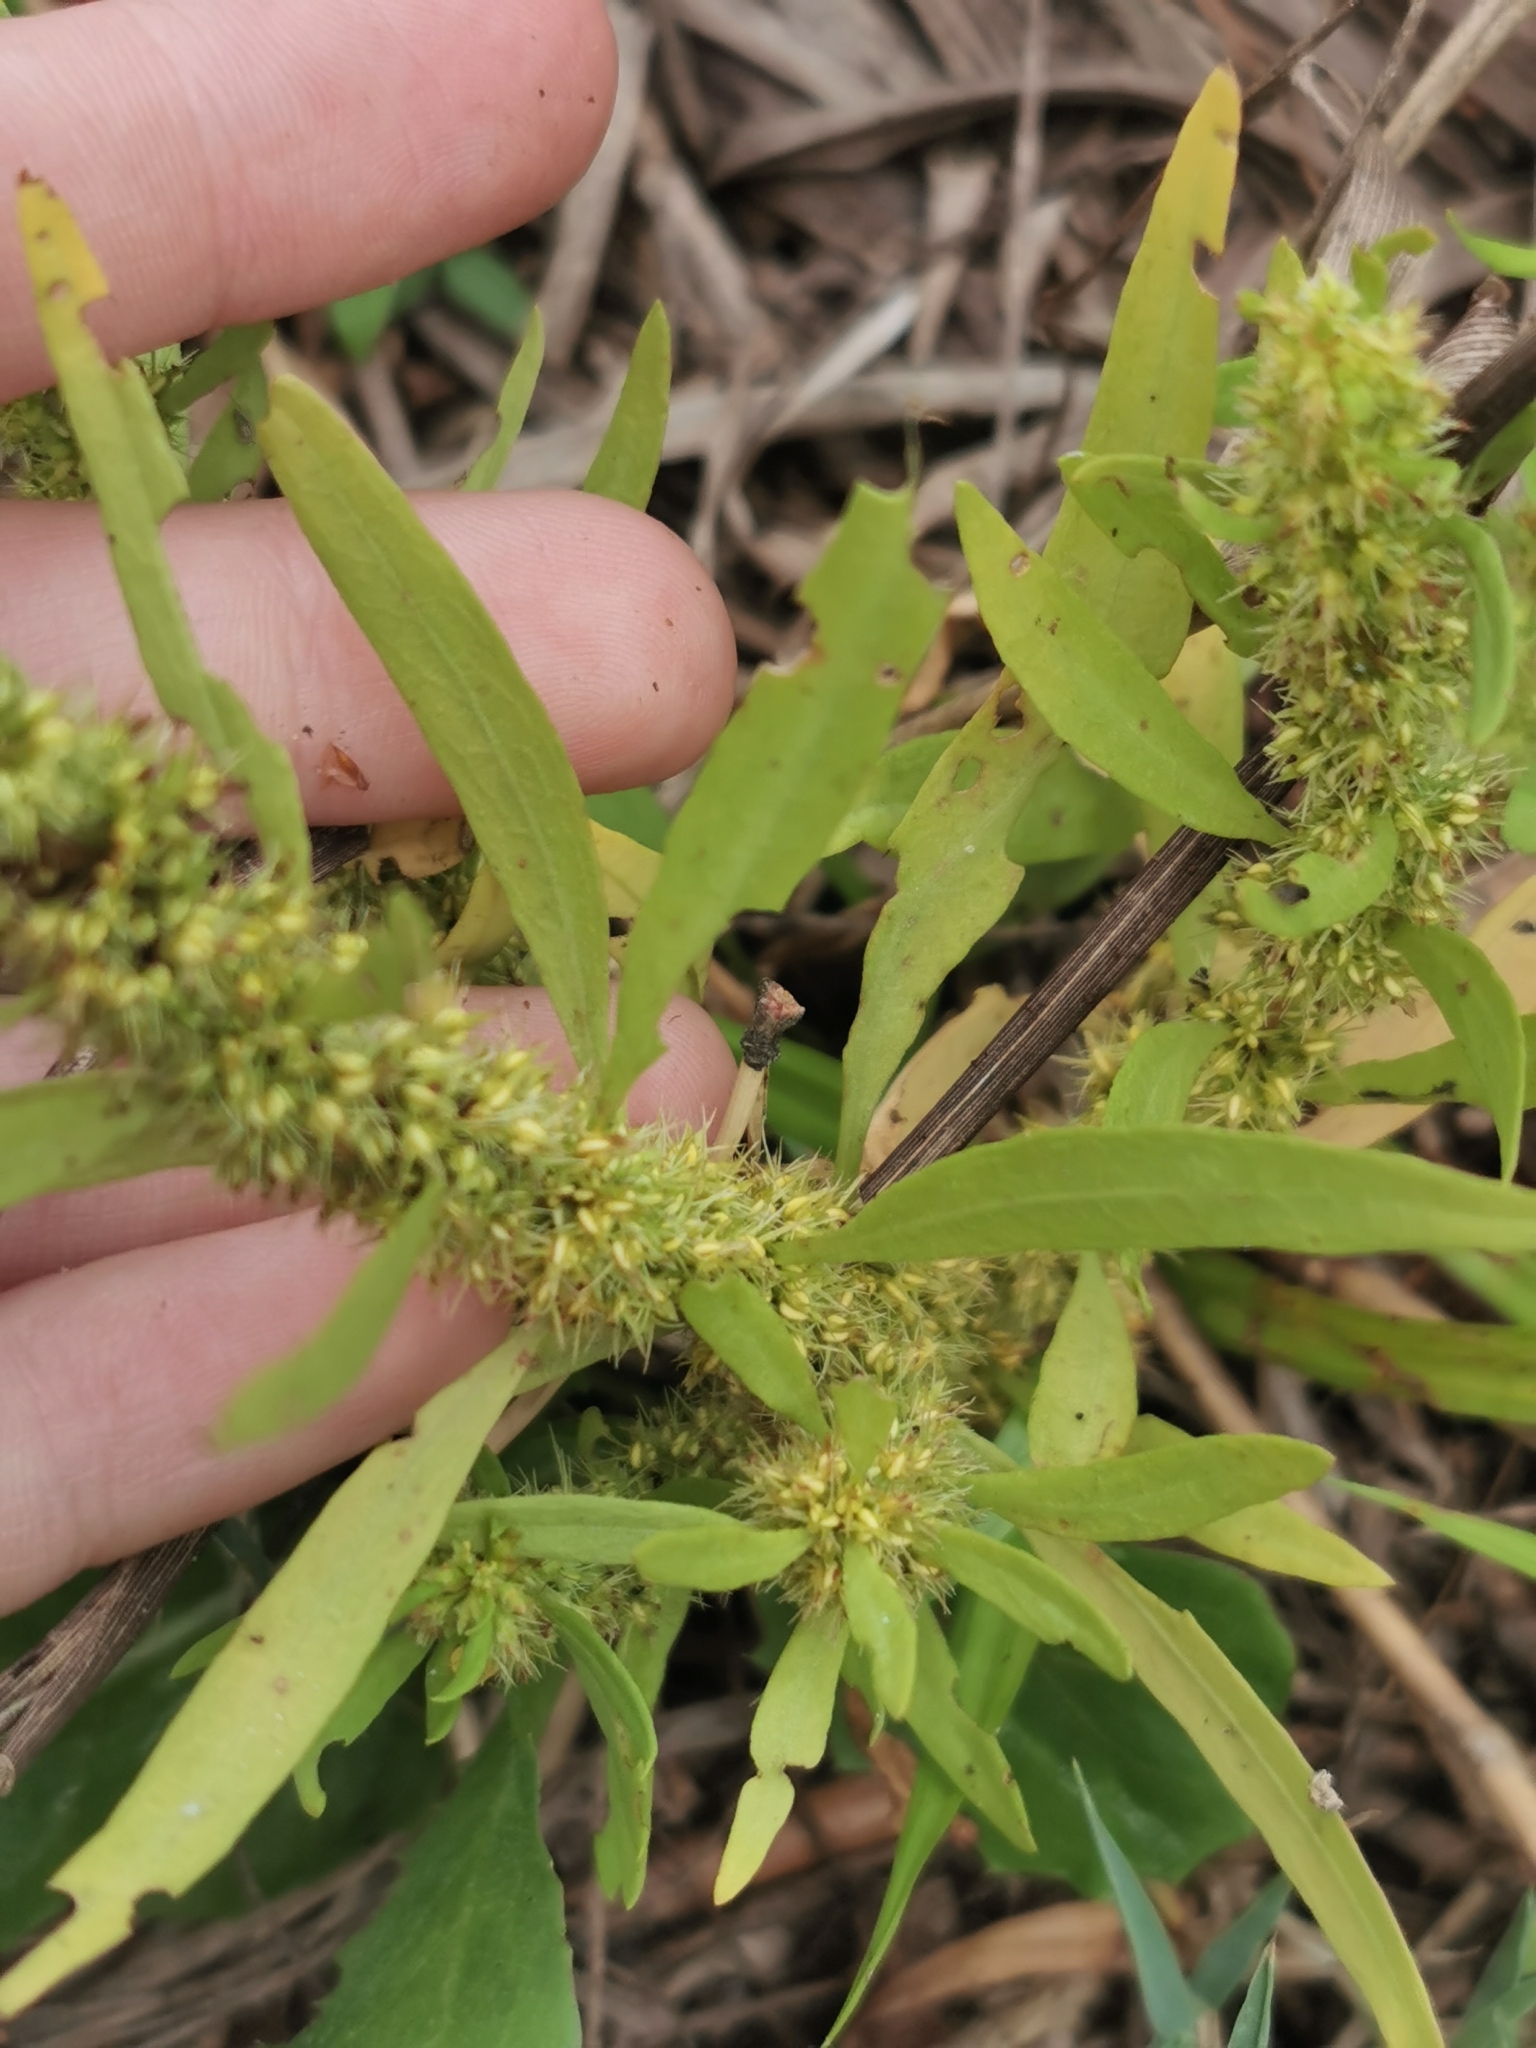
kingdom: Plantae
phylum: Tracheophyta
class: Magnoliopsida
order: Caryophyllales
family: Polygonaceae
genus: Rumex
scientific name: Rumex maritimus
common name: Golden dock
